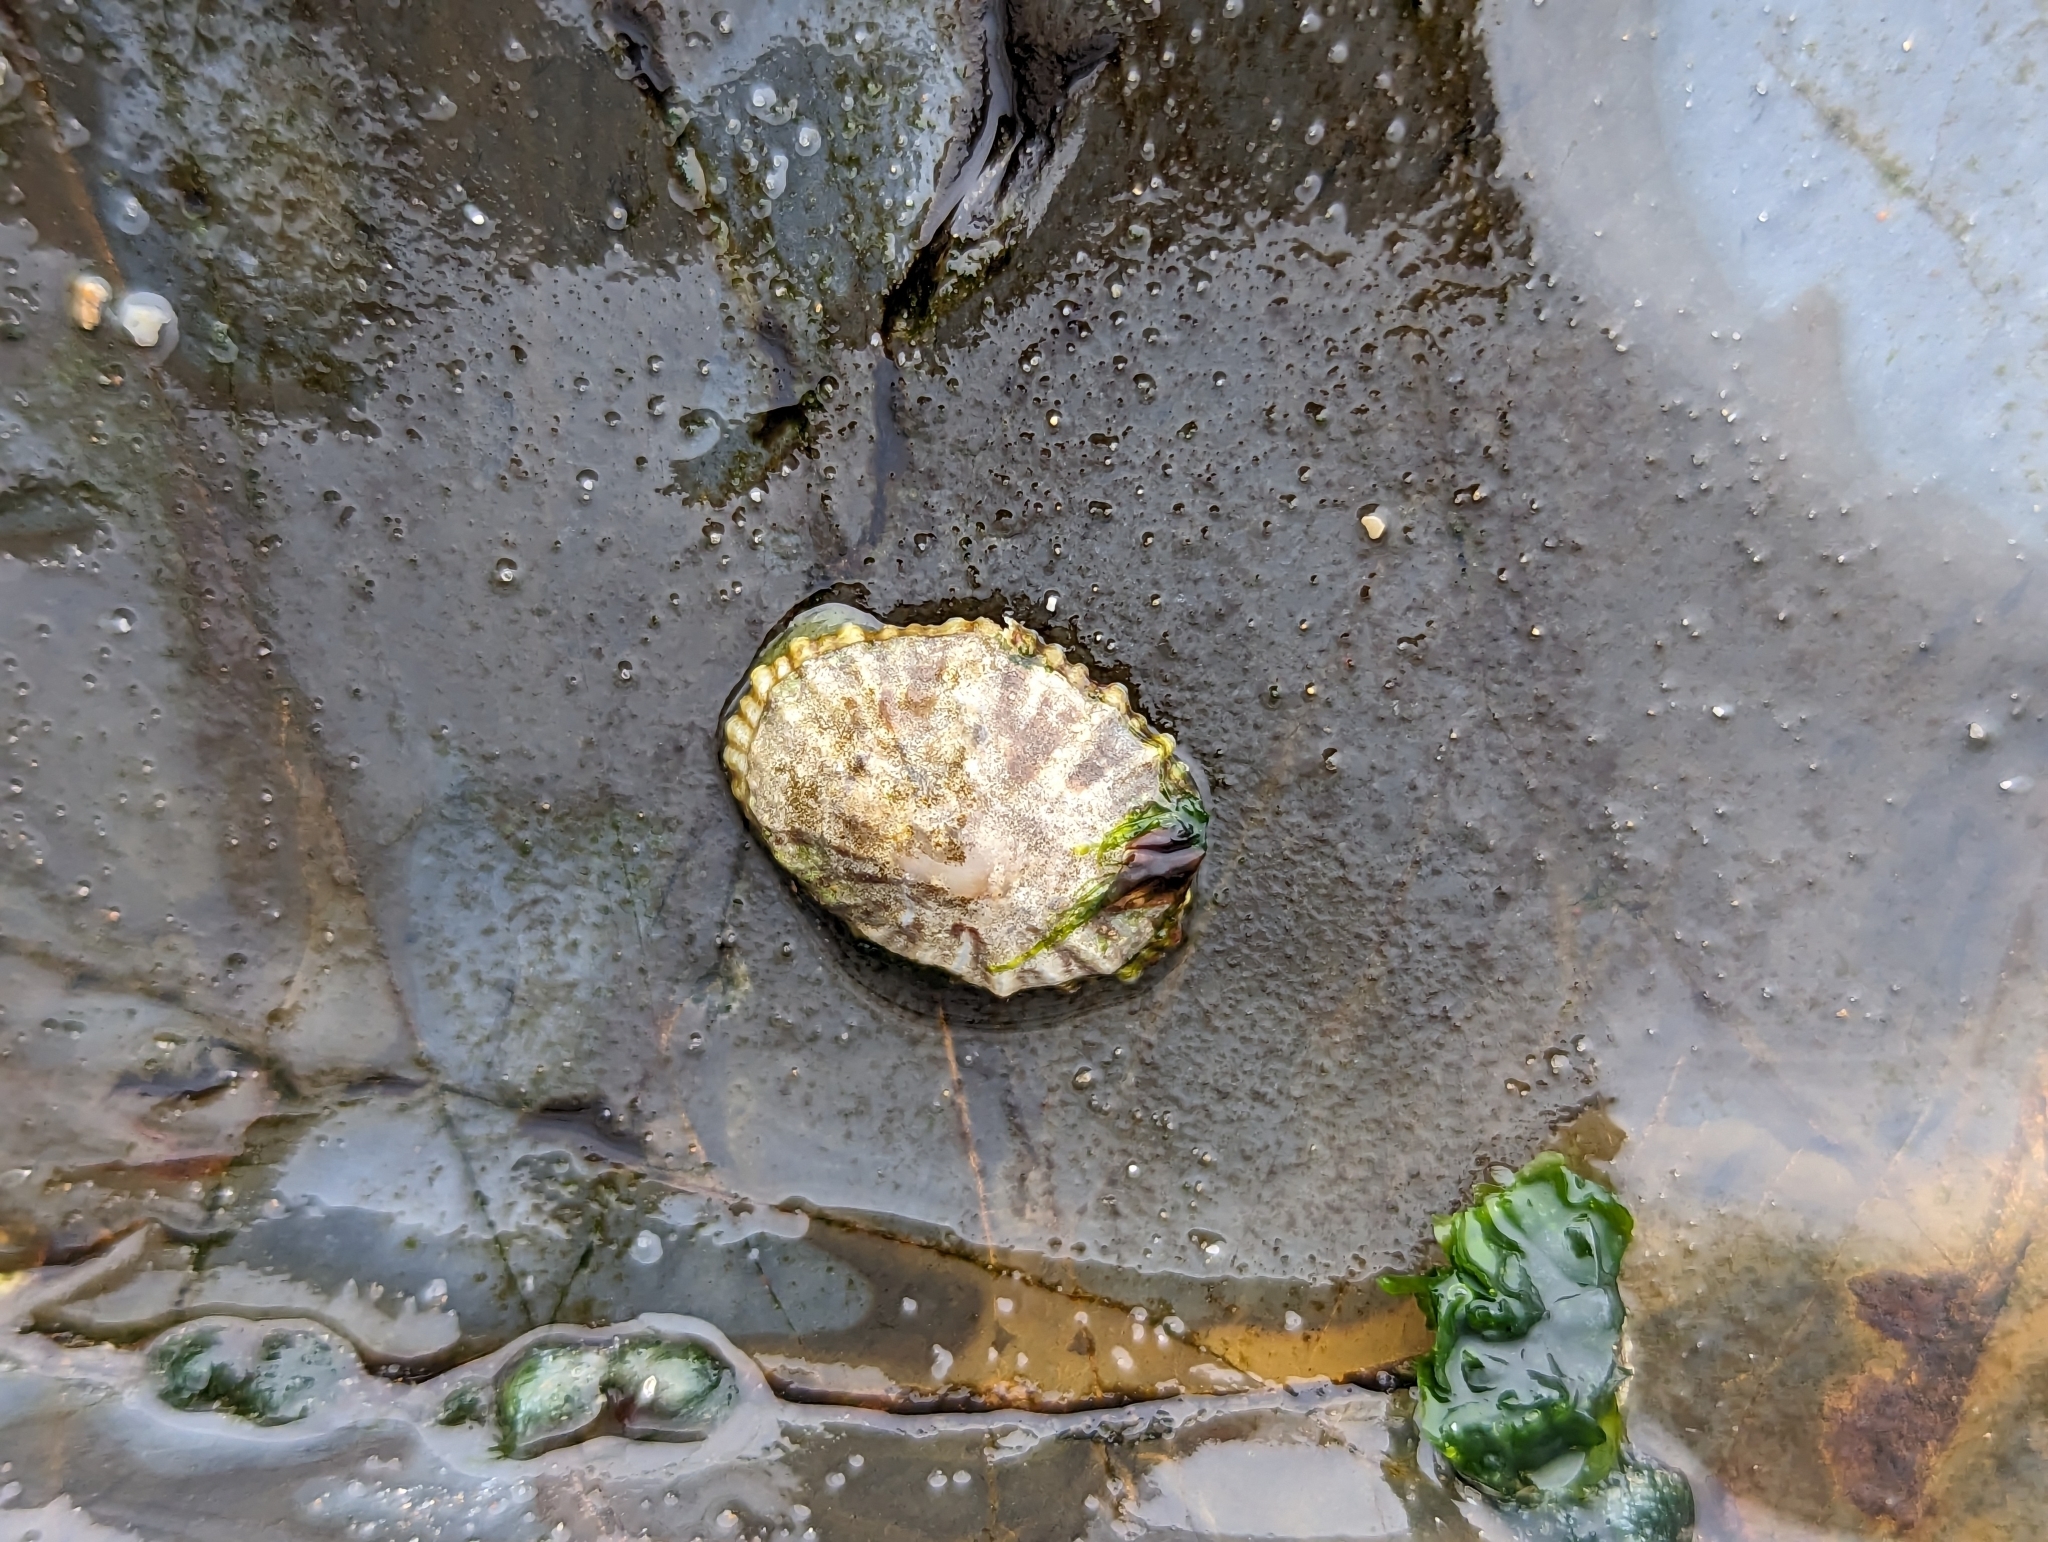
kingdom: Animalia
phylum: Mollusca
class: Gastropoda
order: Siphonariida
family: Siphonariidae
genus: Siphonaria
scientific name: Siphonaria denticulata
